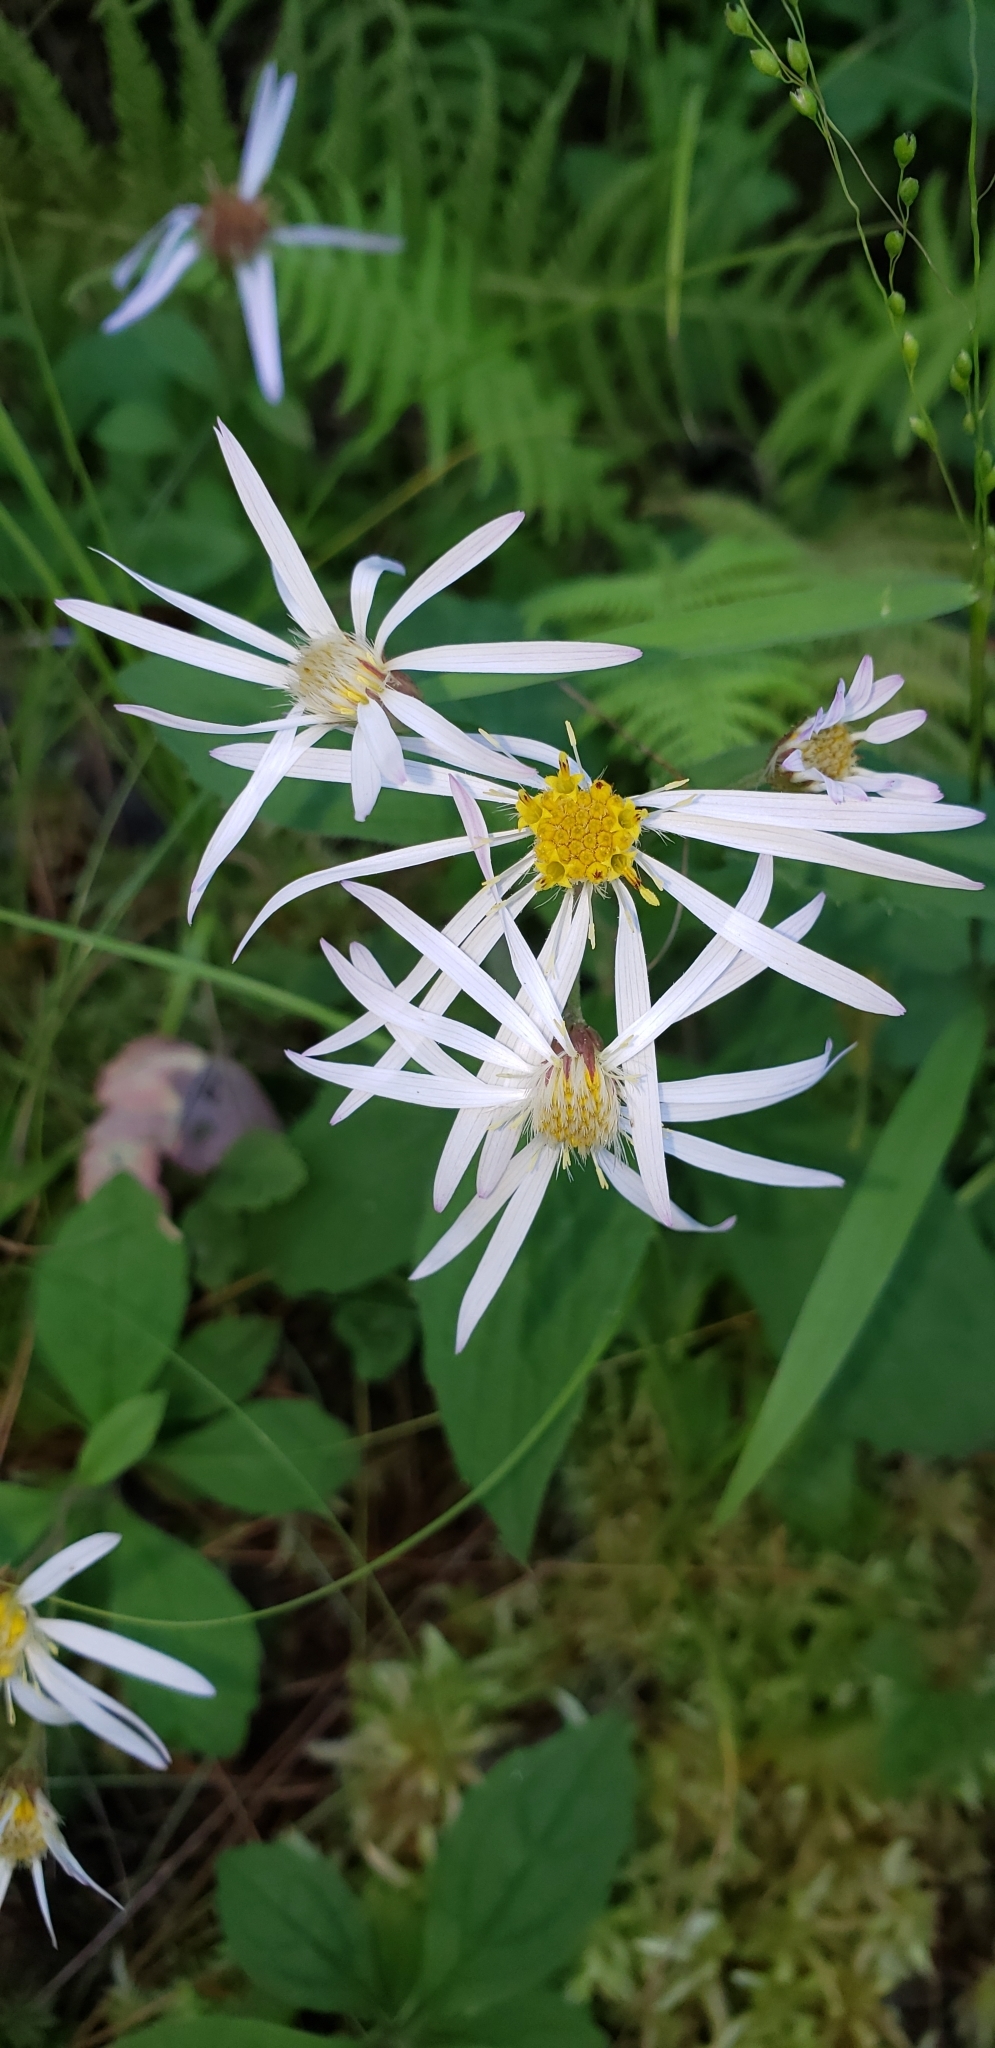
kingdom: Plantae
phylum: Tracheophyta
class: Magnoliopsida
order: Asterales
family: Asteraceae
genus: Oclemena
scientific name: Oclemena acuminata
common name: Mountain aster
